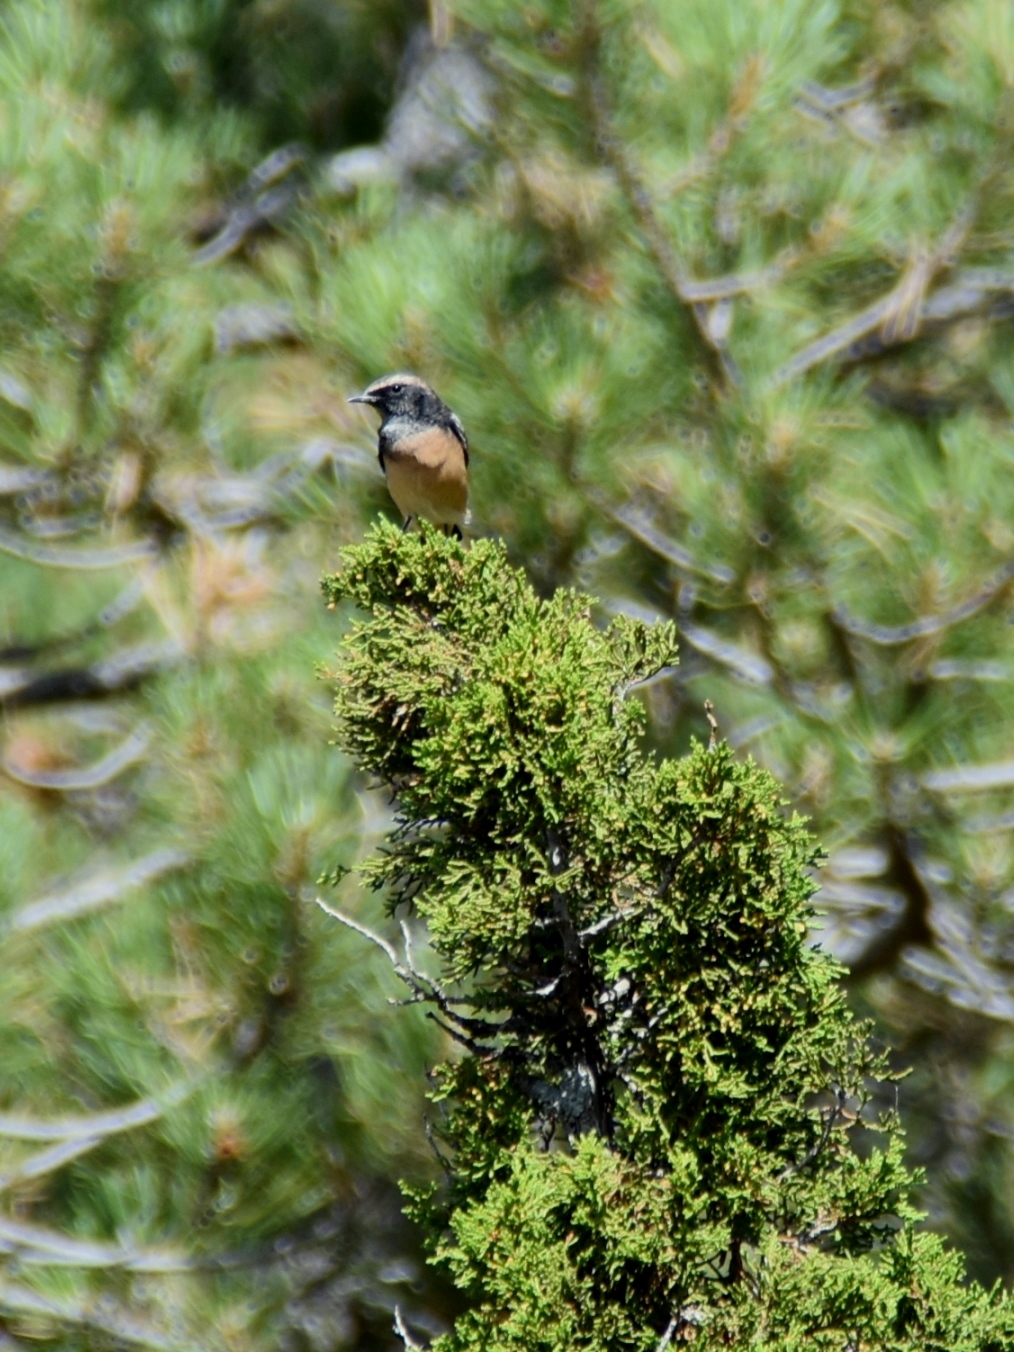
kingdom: Animalia
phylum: Chordata
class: Aves
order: Passeriformes
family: Muscicapidae
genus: Oenanthe
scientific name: Oenanthe cypriaca
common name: Cyprus wheatear
